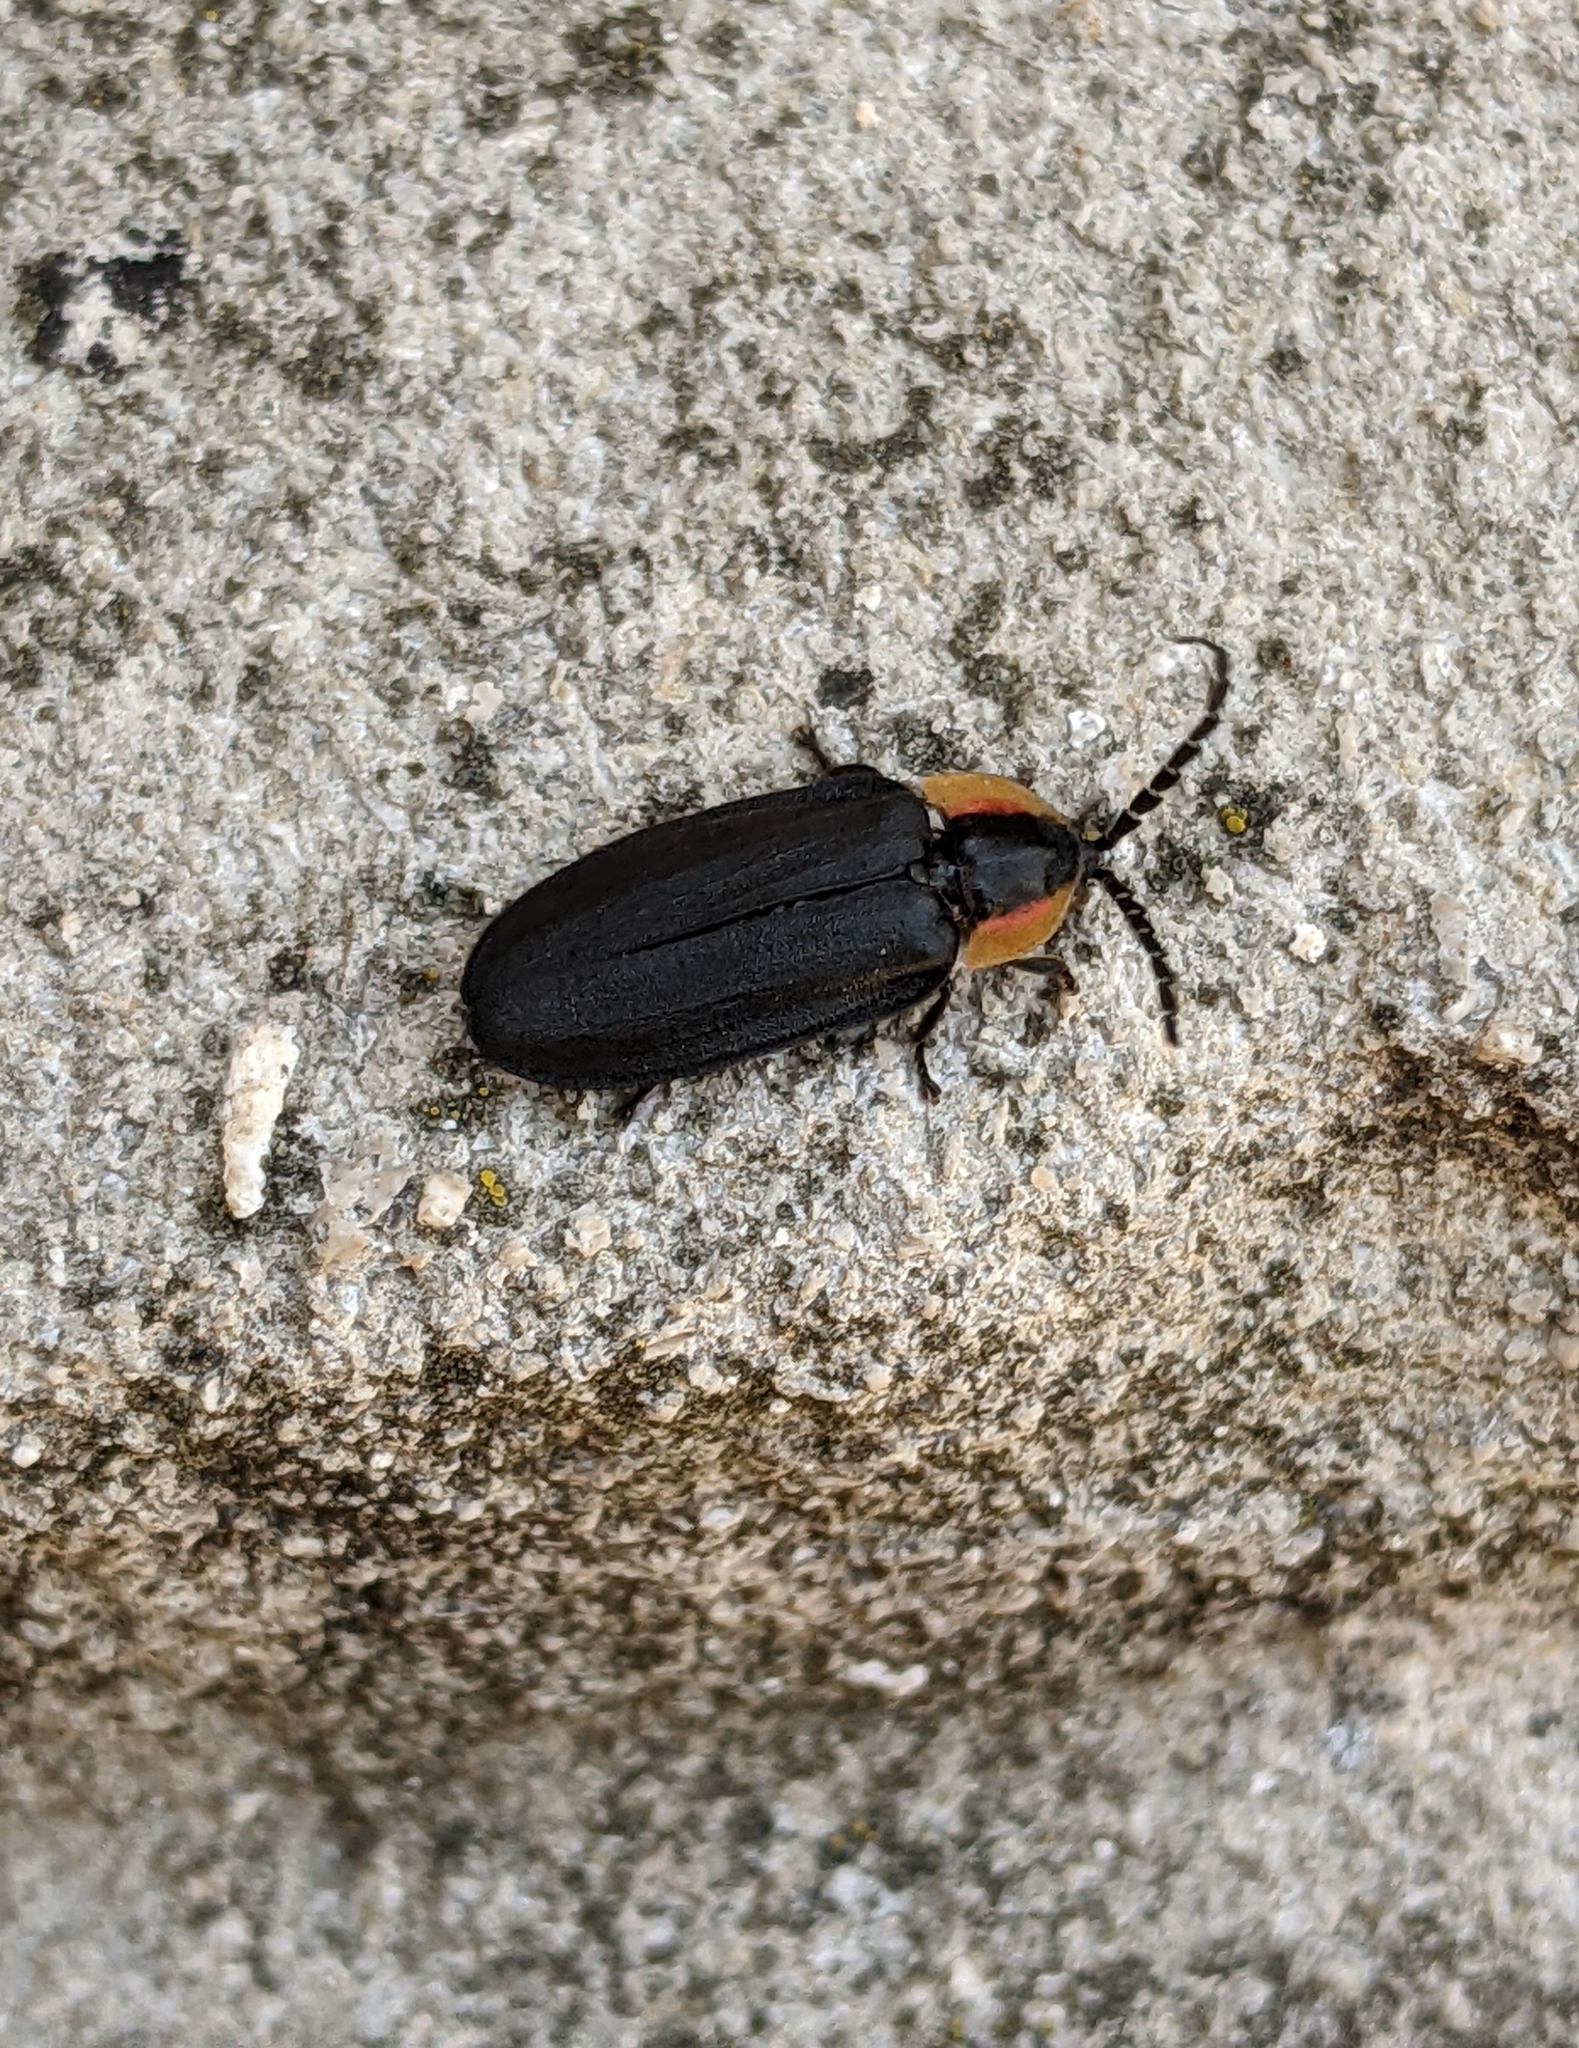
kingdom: Animalia
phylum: Arthropoda
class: Insecta
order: Coleoptera
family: Lampyridae
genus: Lucidota
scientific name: Lucidota atra
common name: Black firefly
